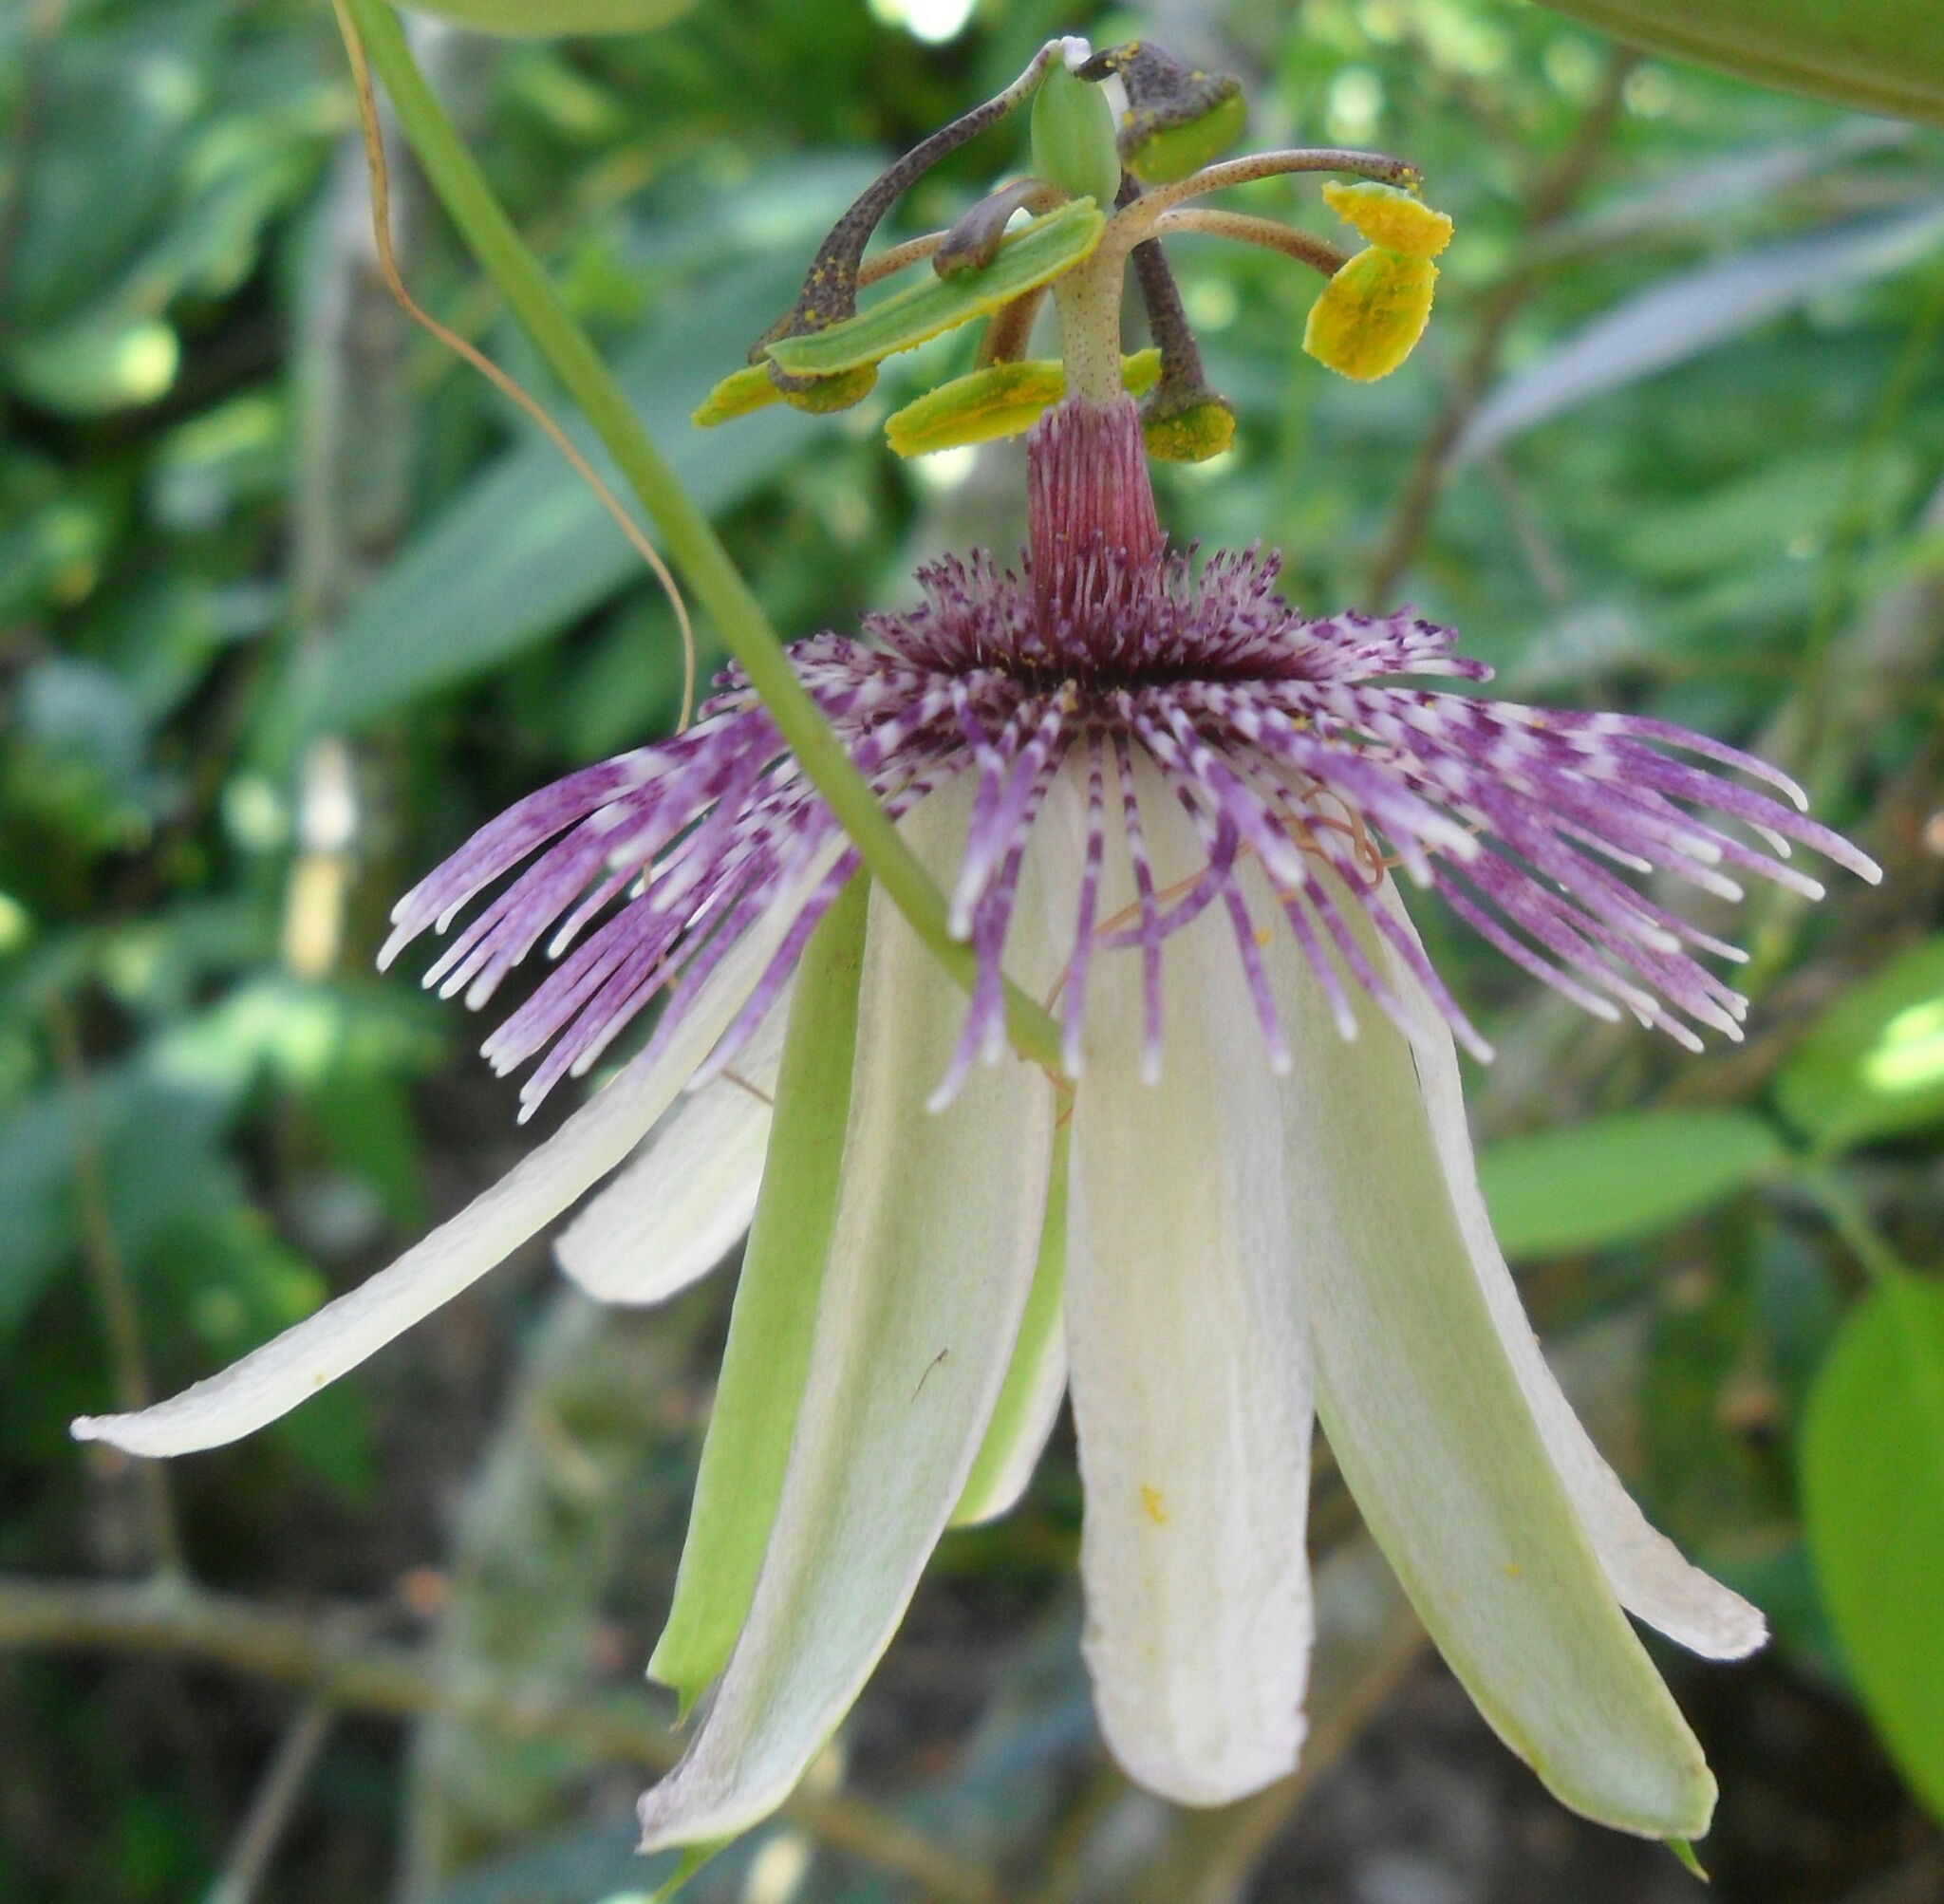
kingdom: Plantae
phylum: Tracheophyta
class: Magnoliopsida
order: Malpighiales
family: Passifloraceae
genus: Passiflora
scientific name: Passiflora miersii
